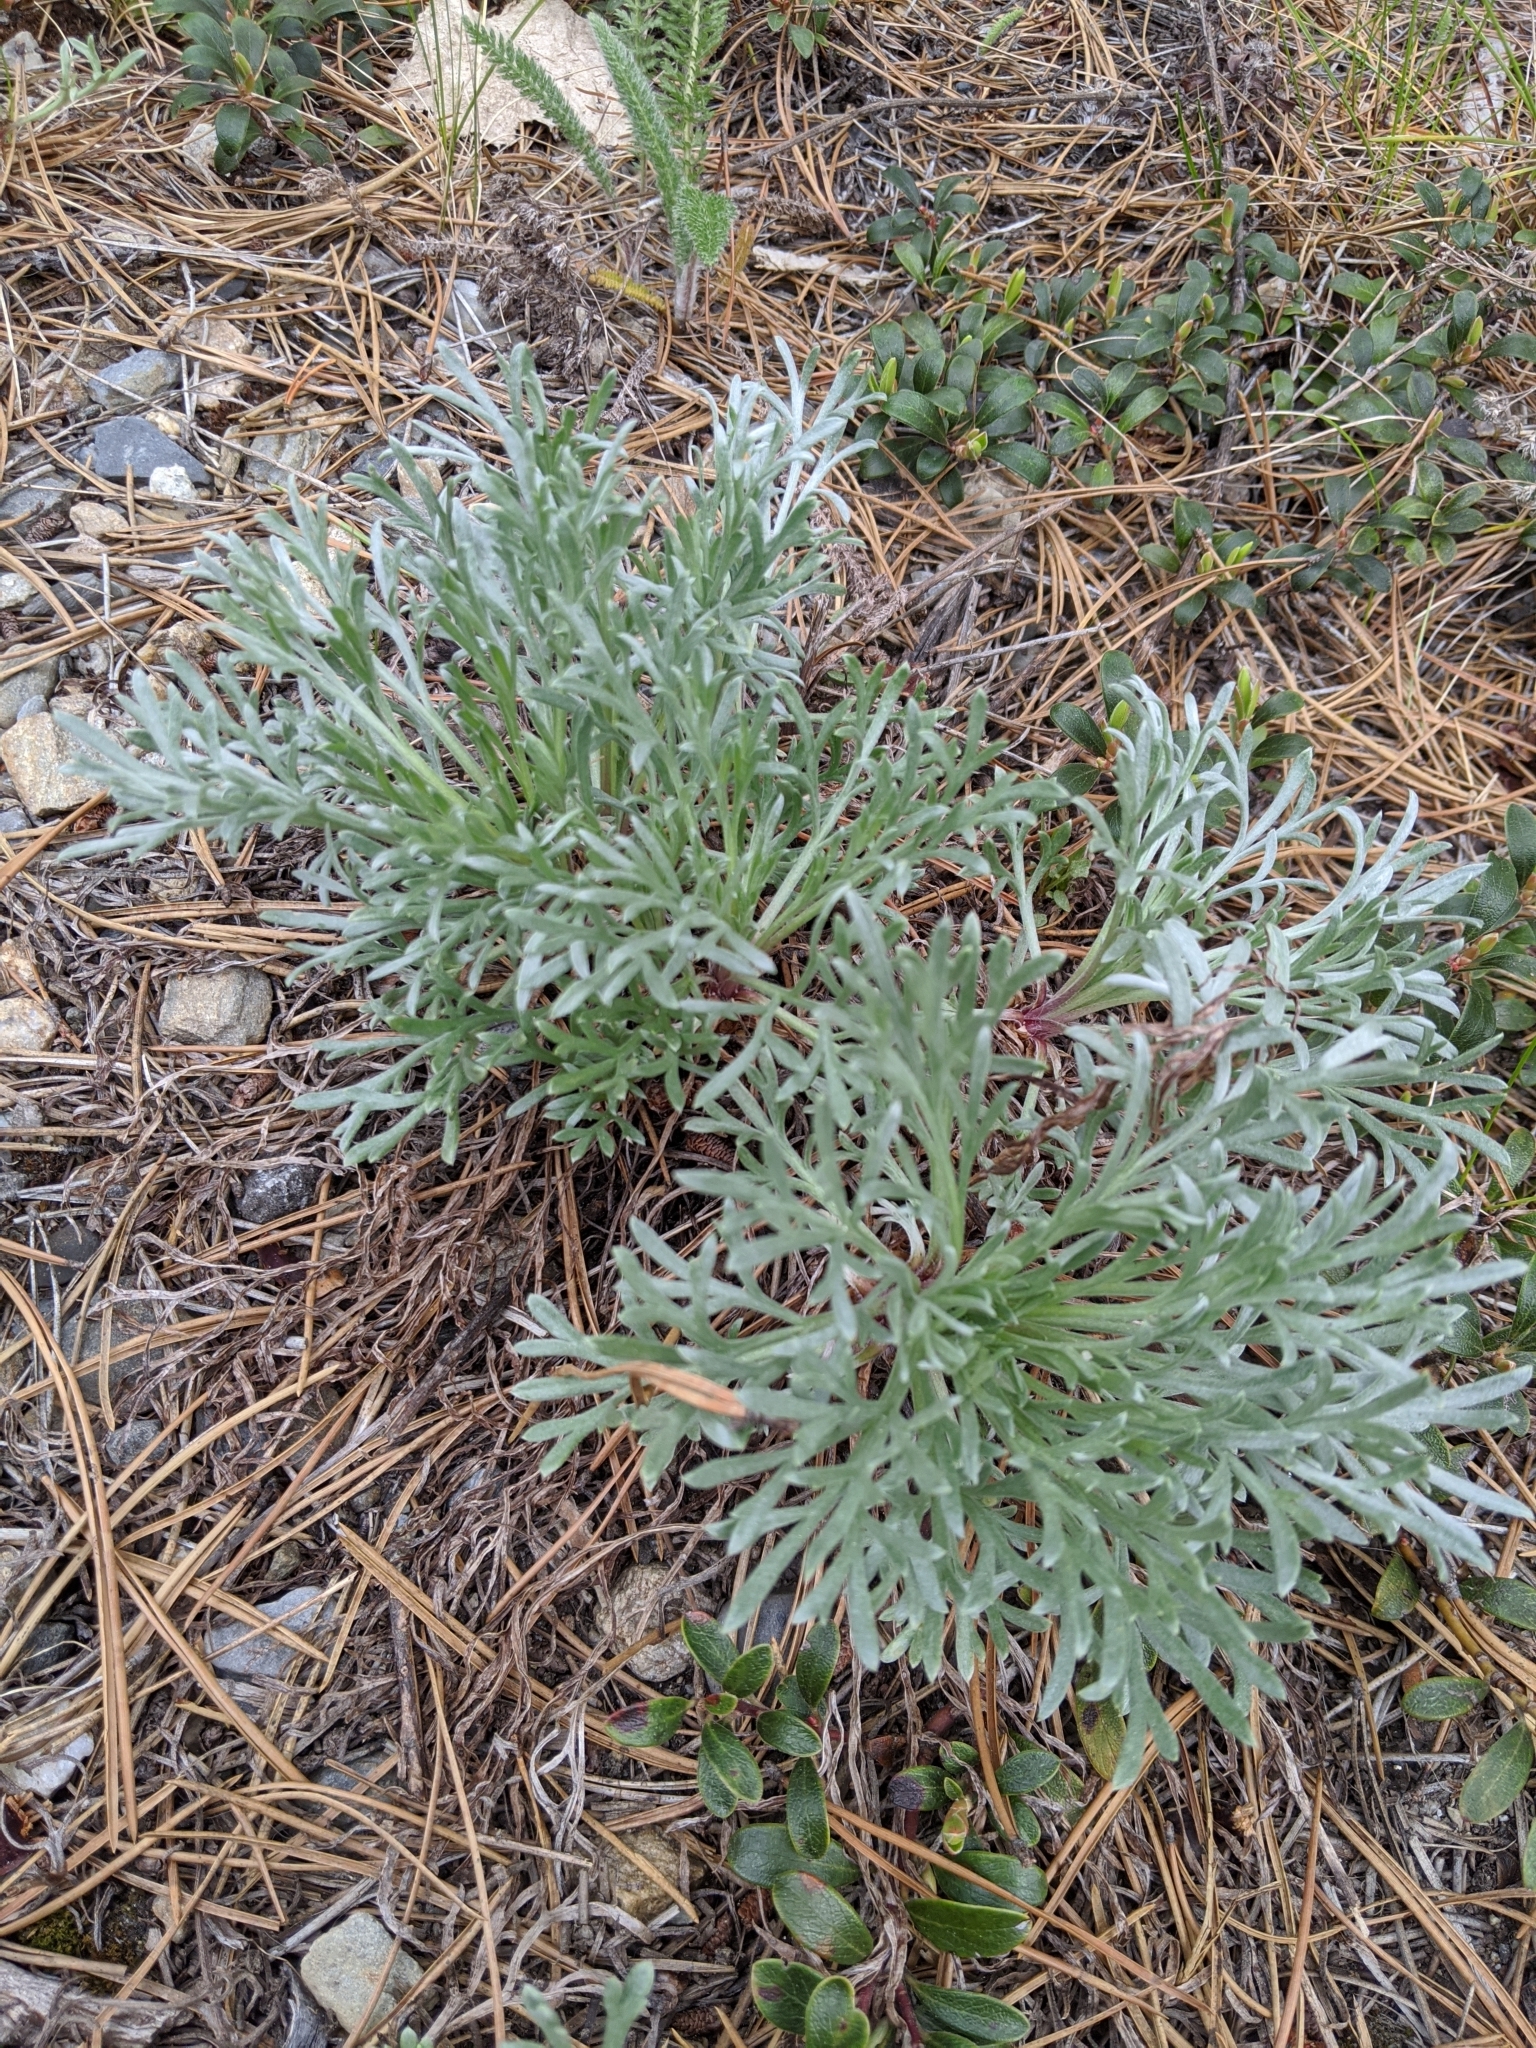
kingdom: Plantae
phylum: Tracheophyta
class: Magnoliopsida
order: Asterales
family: Asteraceae
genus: Artemisia
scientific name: Artemisia campestris
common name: Field wormwood
